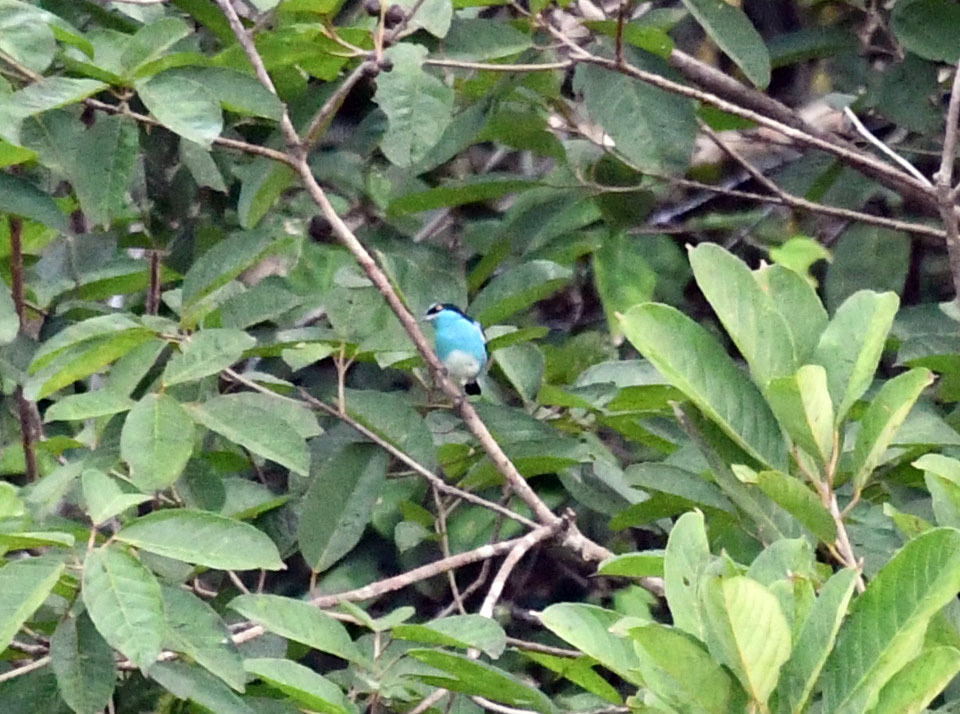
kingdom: Animalia
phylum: Chordata
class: Aves
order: Passeriformes
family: Thraupidae
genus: Dacnis
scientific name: Dacnis lineata
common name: Black-faced dacnis
